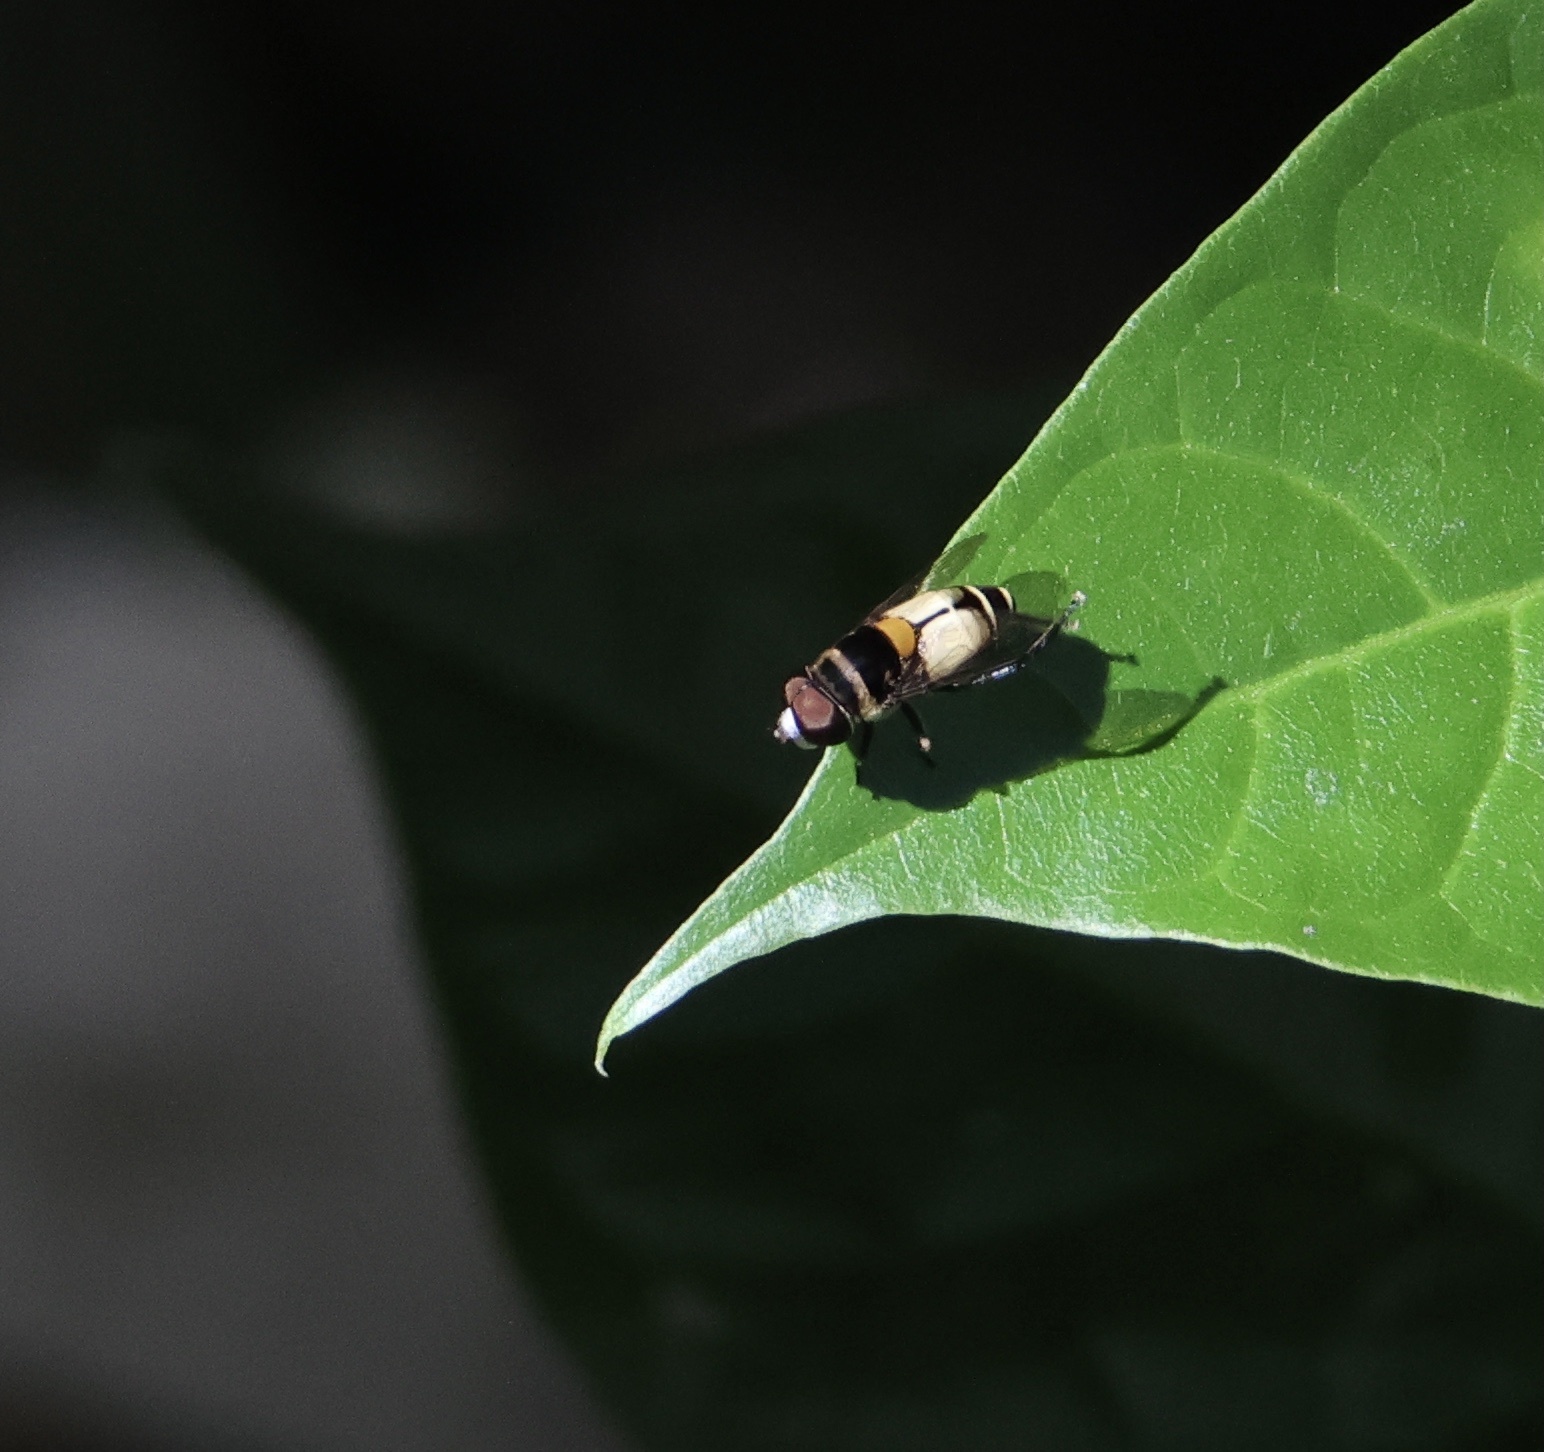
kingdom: Animalia
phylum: Arthropoda
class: Insecta
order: Diptera
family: Syrphidae
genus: Palpada
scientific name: Palpada albifrons
